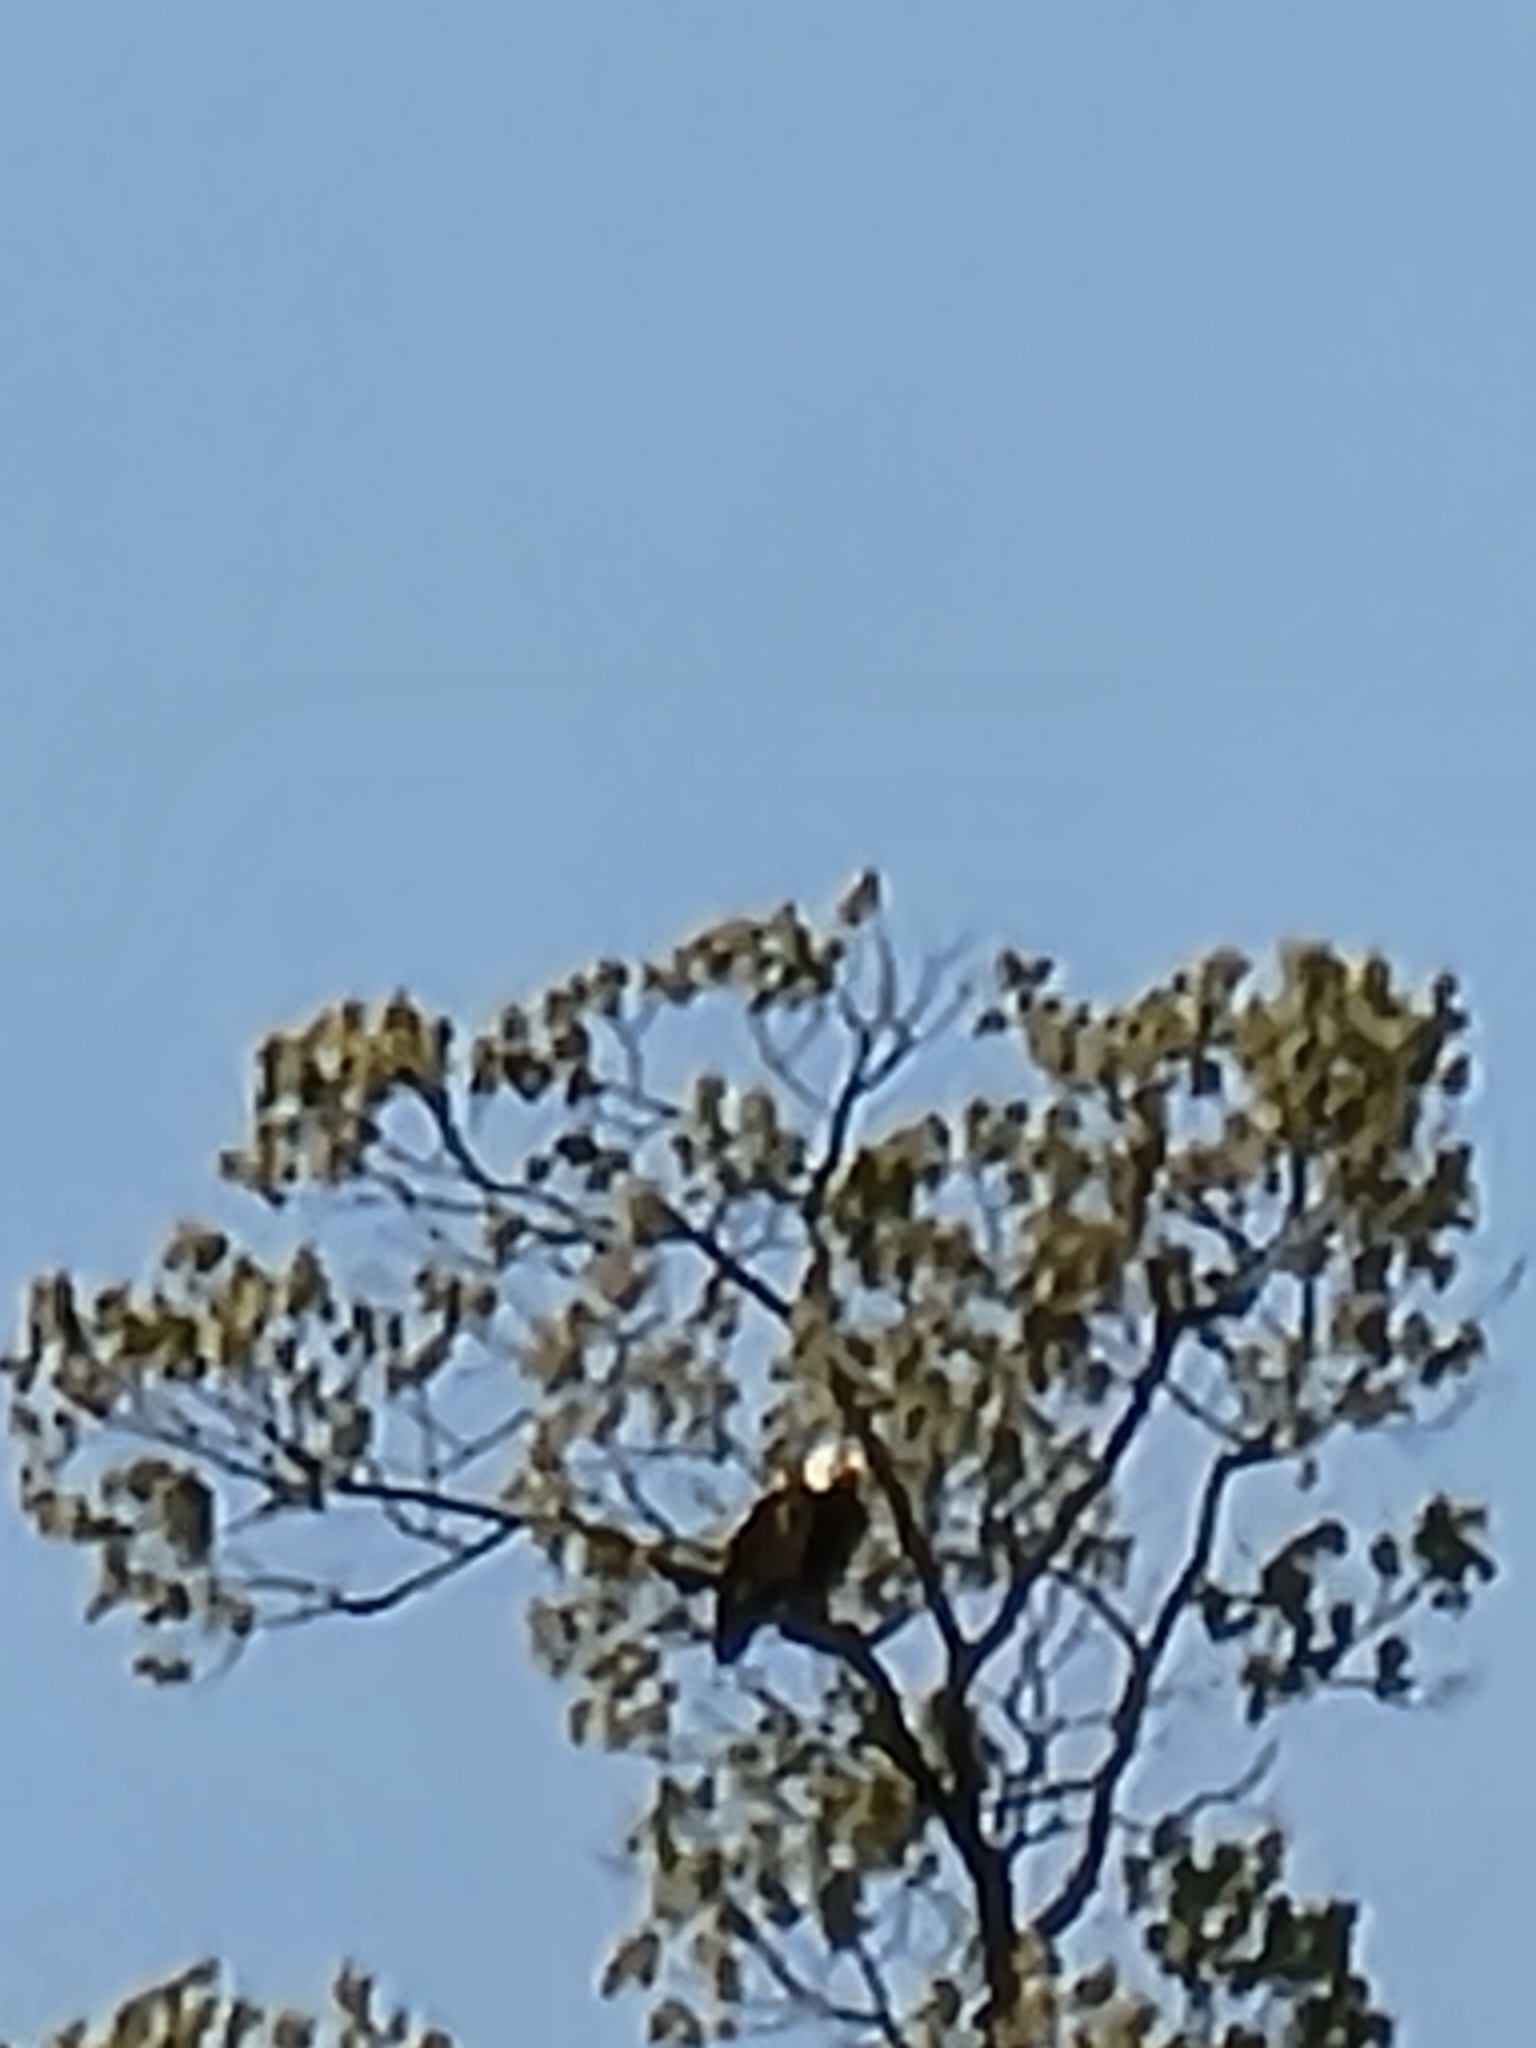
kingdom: Animalia
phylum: Chordata
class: Aves
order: Accipitriformes
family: Accipitridae
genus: Haliaeetus
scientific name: Haliaeetus leucocephalus
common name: Bald eagle
